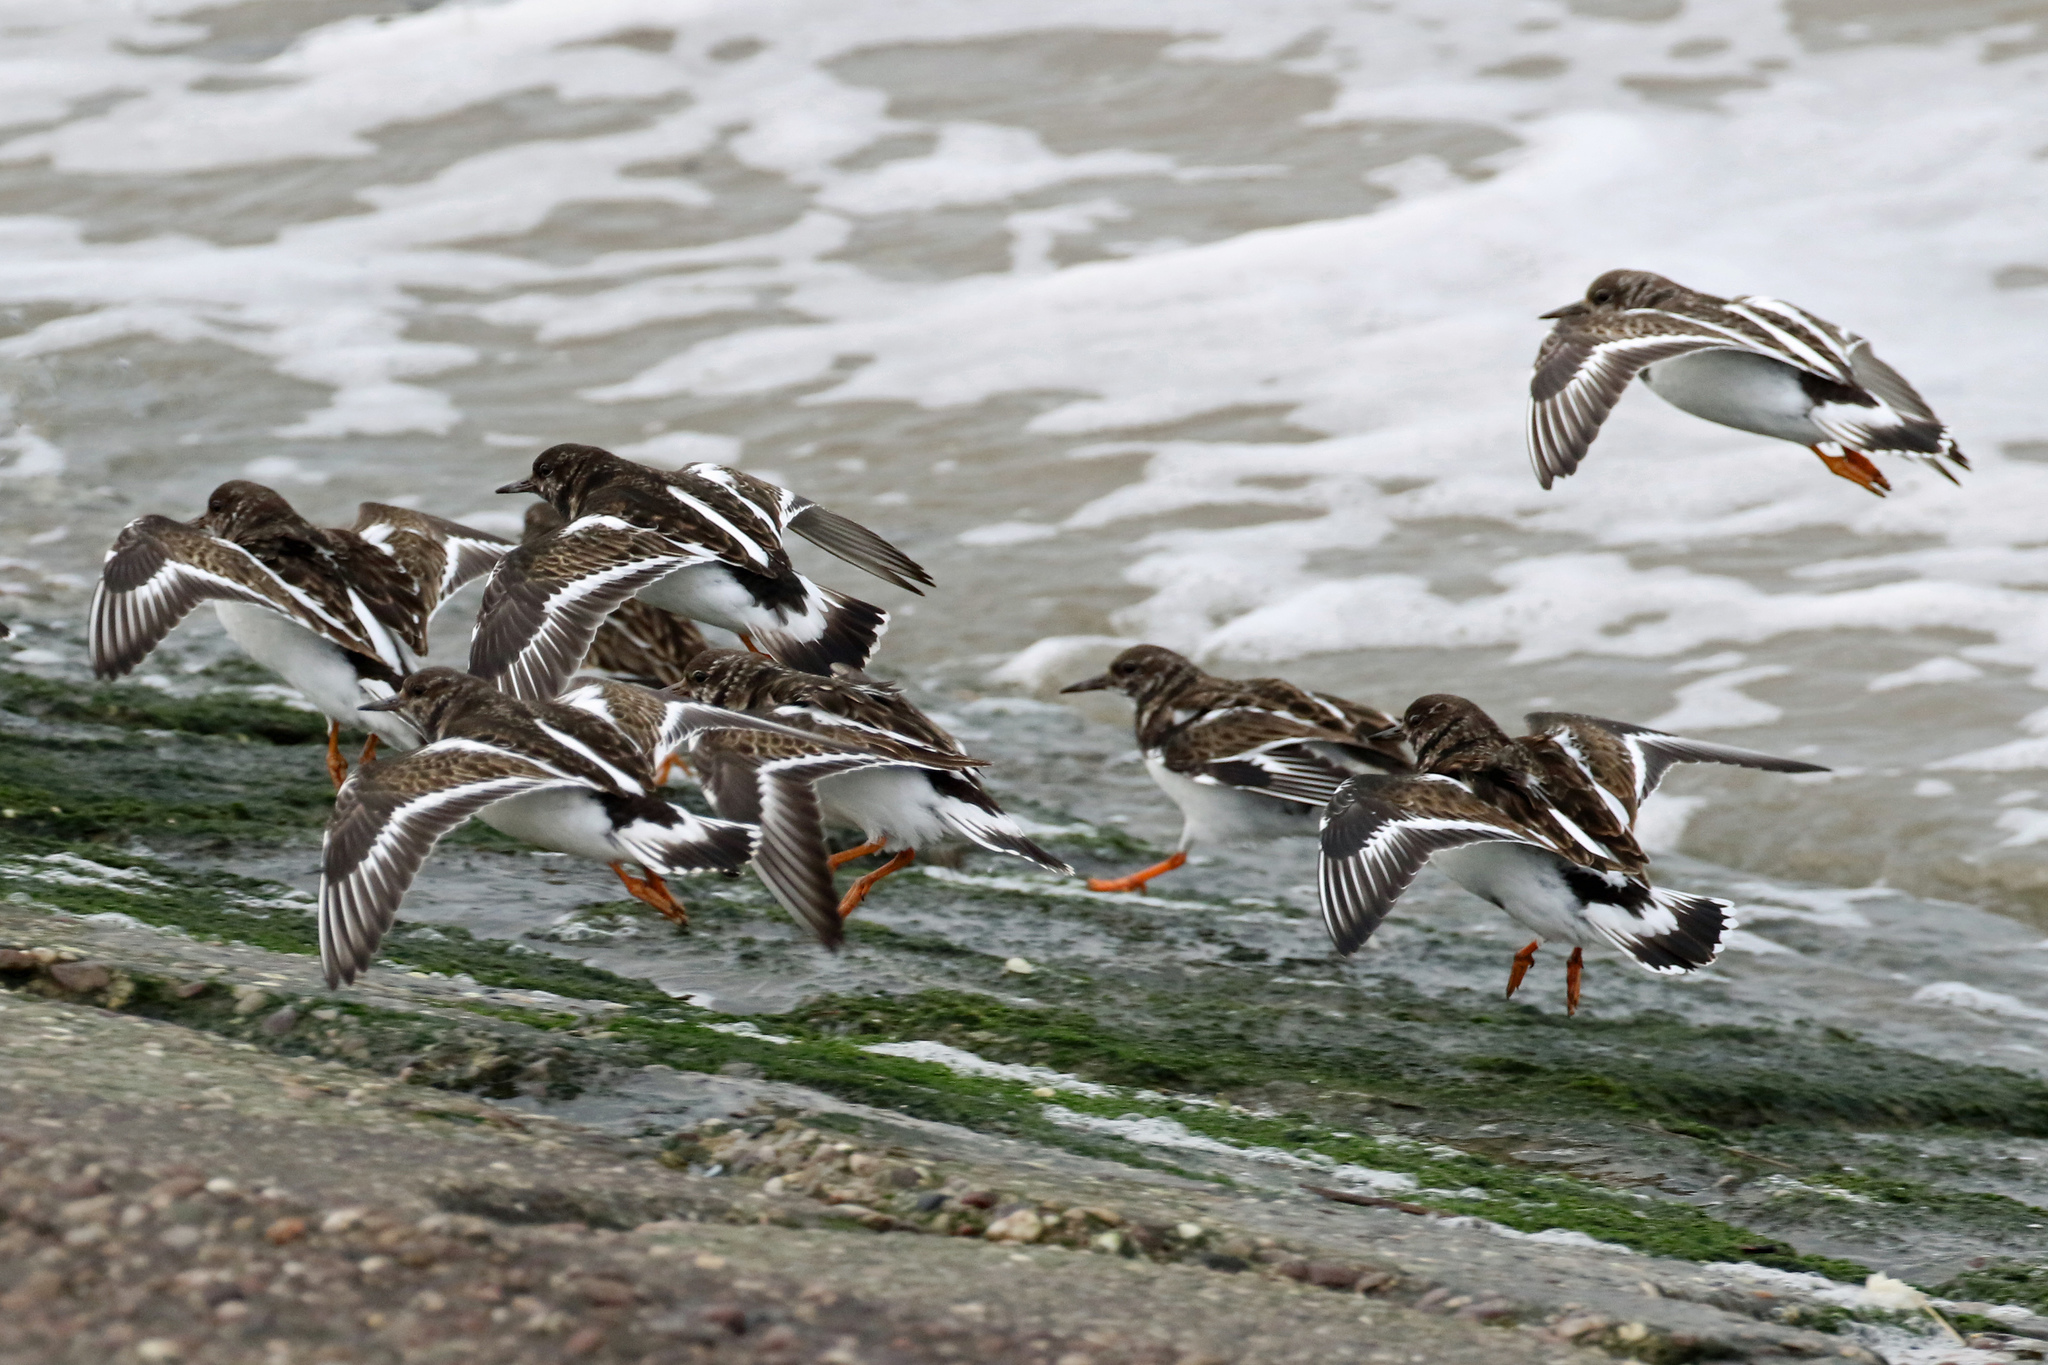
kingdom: Animalia
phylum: Chordata
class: Aves
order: Charadriiformes
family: Scolopacidae
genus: Arenaria
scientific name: Arenaria interpres
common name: Ruddy turnstone
